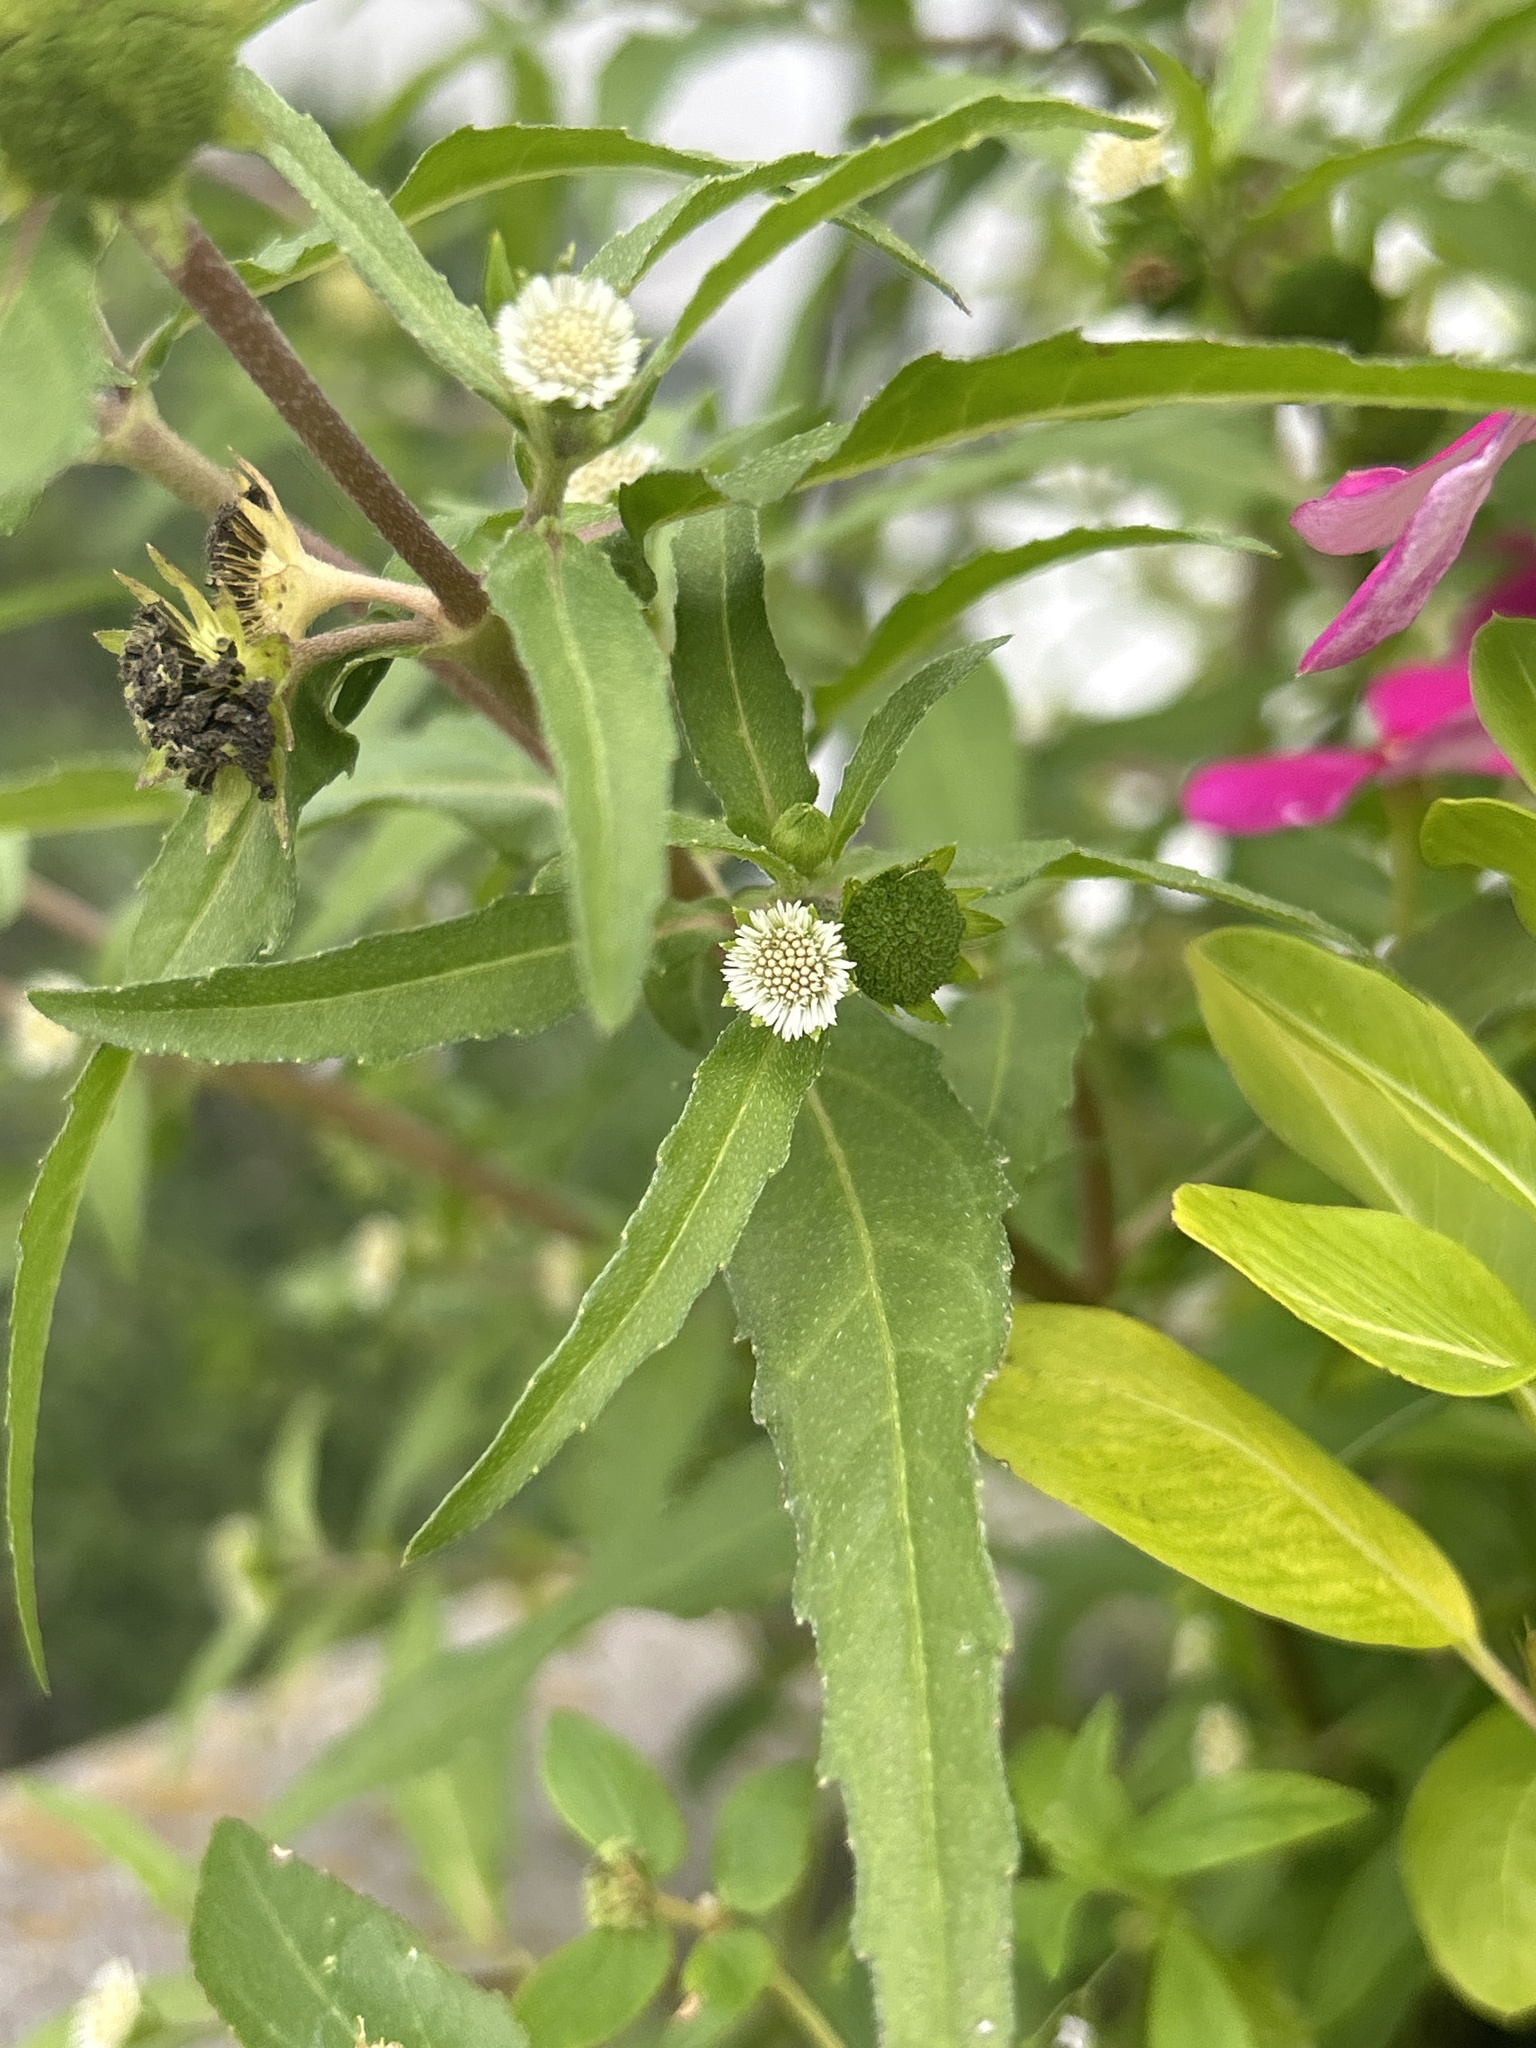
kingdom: Plantae
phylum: Tracheophyta
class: Magnoliopsida
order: Asterales
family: Asteraceae
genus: Eclipta
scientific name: Eclipta prostrata
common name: False daisy
